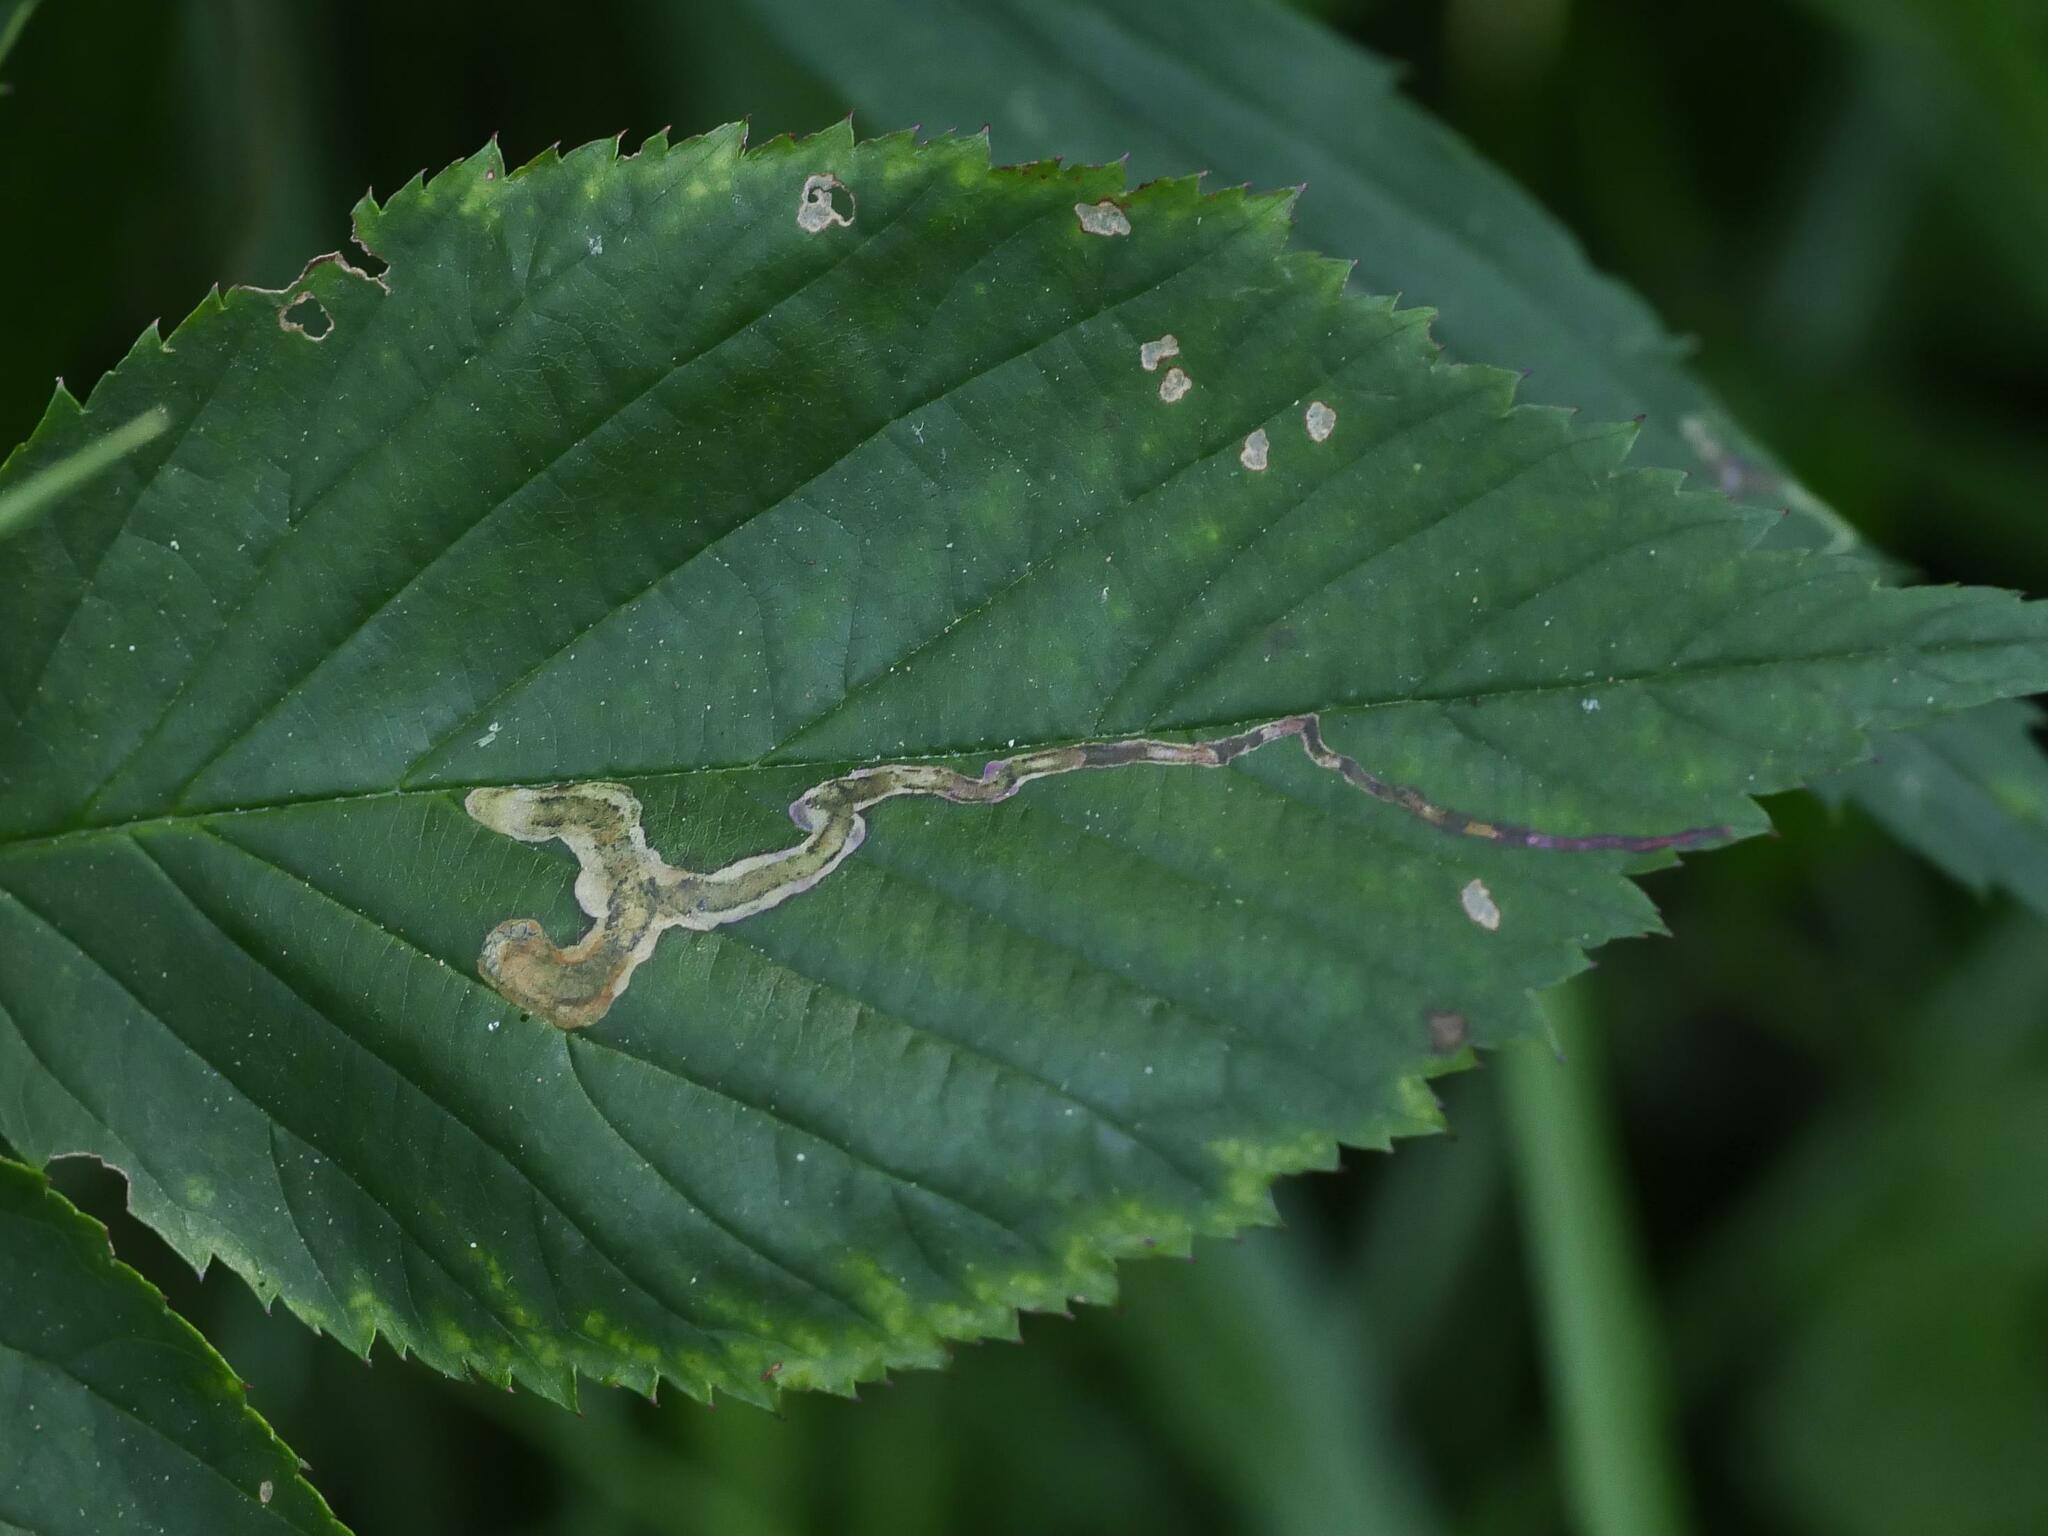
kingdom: Animalia
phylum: Arthropoda
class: Insecta
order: Diptera
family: Agromyzidae
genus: Agromyza
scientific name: Agromyza vockerothi
